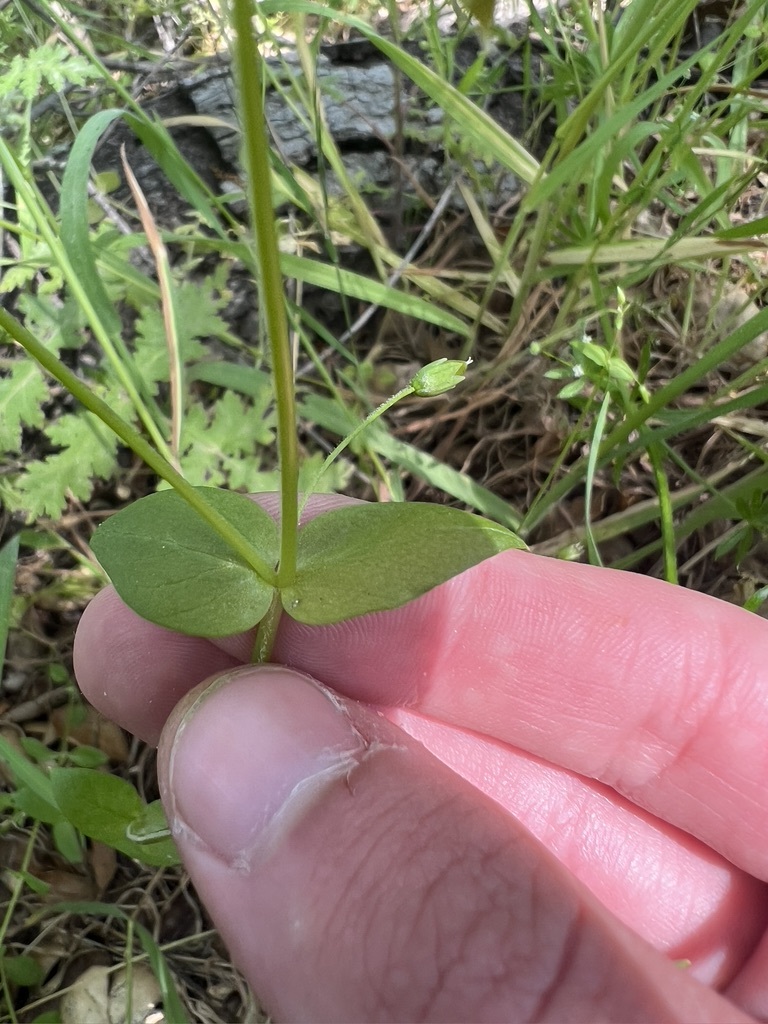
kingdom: Plantae
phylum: Tracheophyta
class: Magnoliopsida
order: Caryophyllales
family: Caryophyllaceae
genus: Stellaria
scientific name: Stellaria media
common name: Common chickweed
